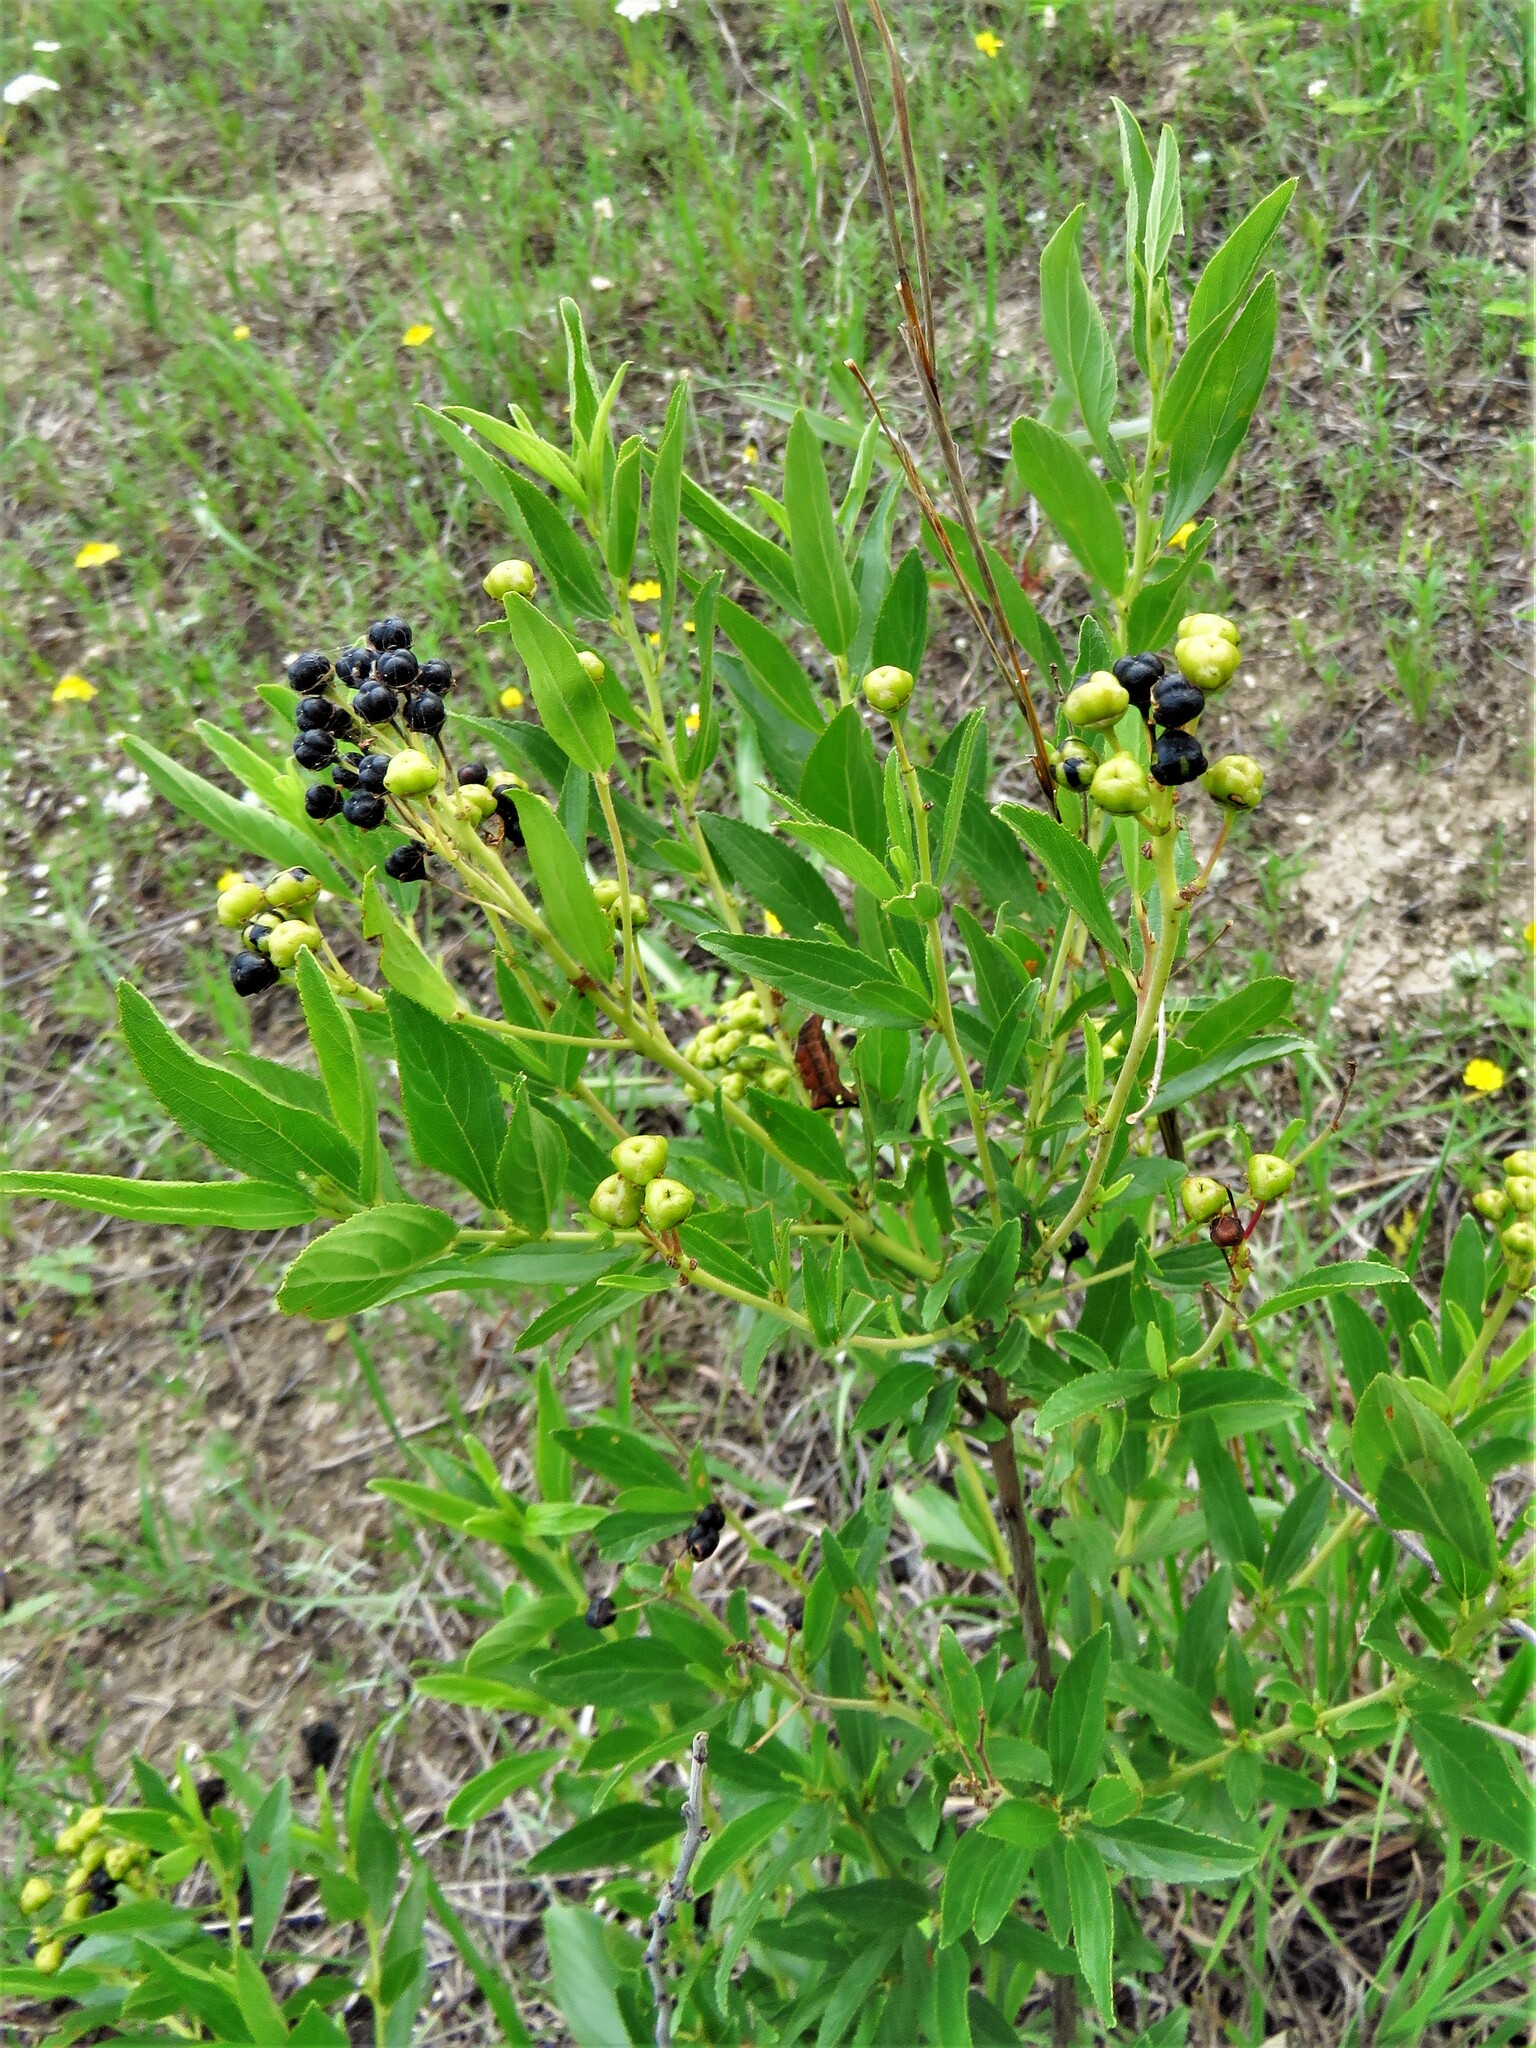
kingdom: Plantae
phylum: Tracheophyta
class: Magnoliopsida
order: Rosales
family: Rhamnaceae
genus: Ceanothus
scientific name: Ceanothus herbaceus
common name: Inland ceanothus
